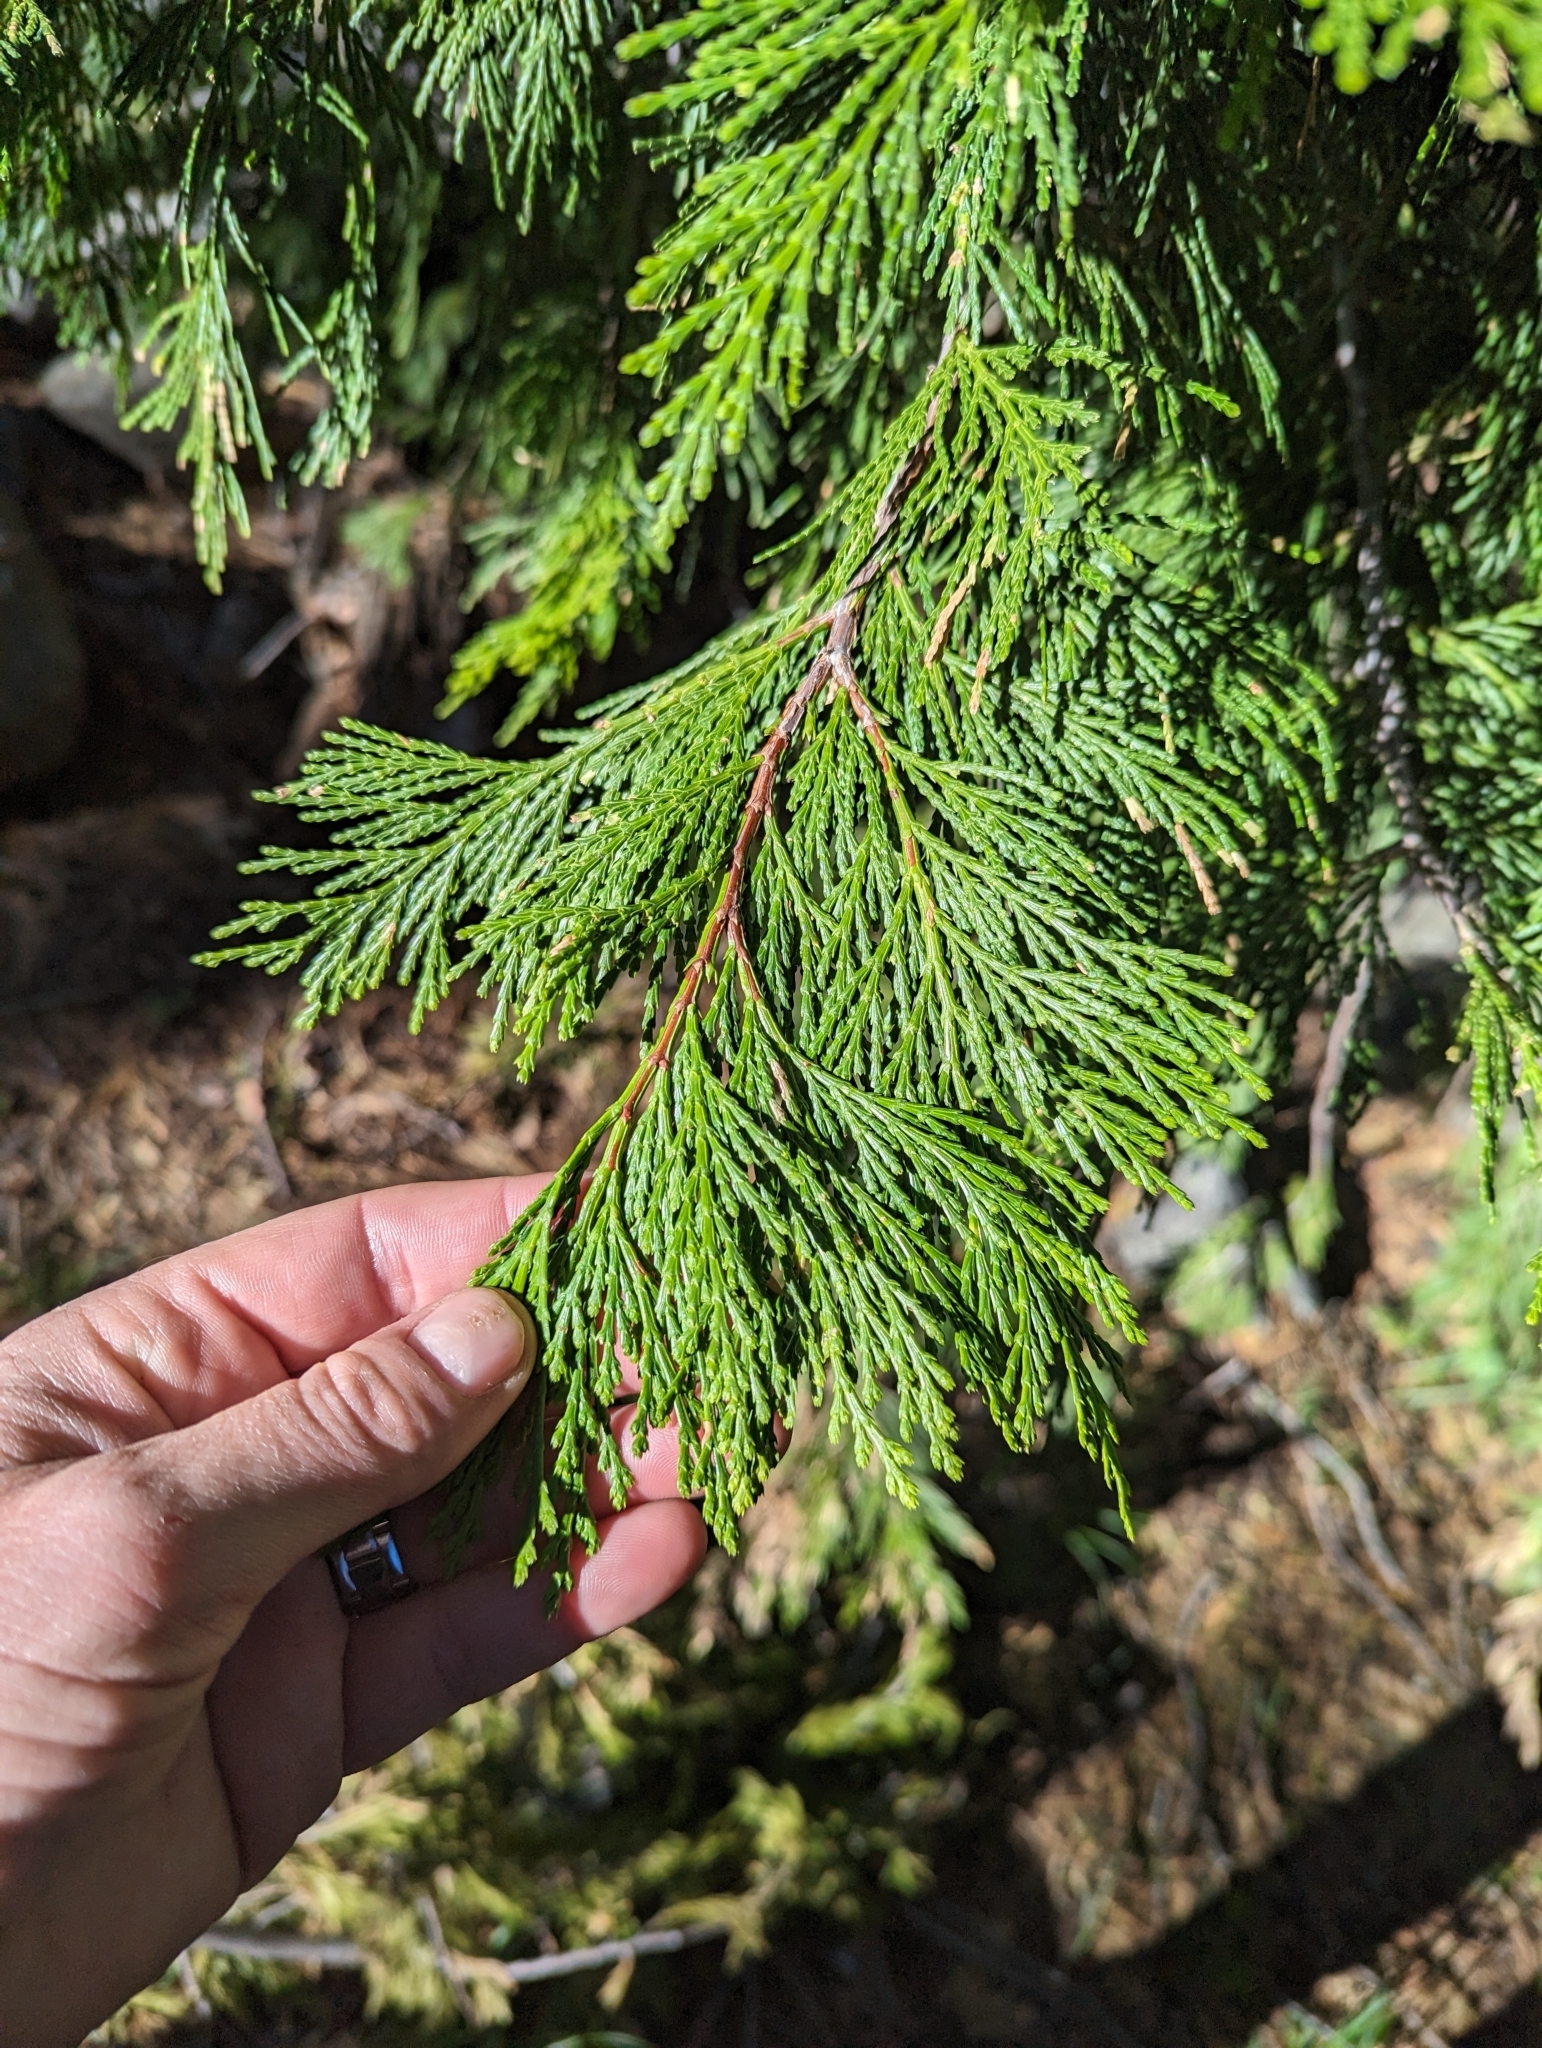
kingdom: Plantae
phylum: Tracheophyta
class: Pinopsida
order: Pinales
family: Cupressaceae
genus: Calocedrus
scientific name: Calocedrus decurrens
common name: Californian incense-cedar
